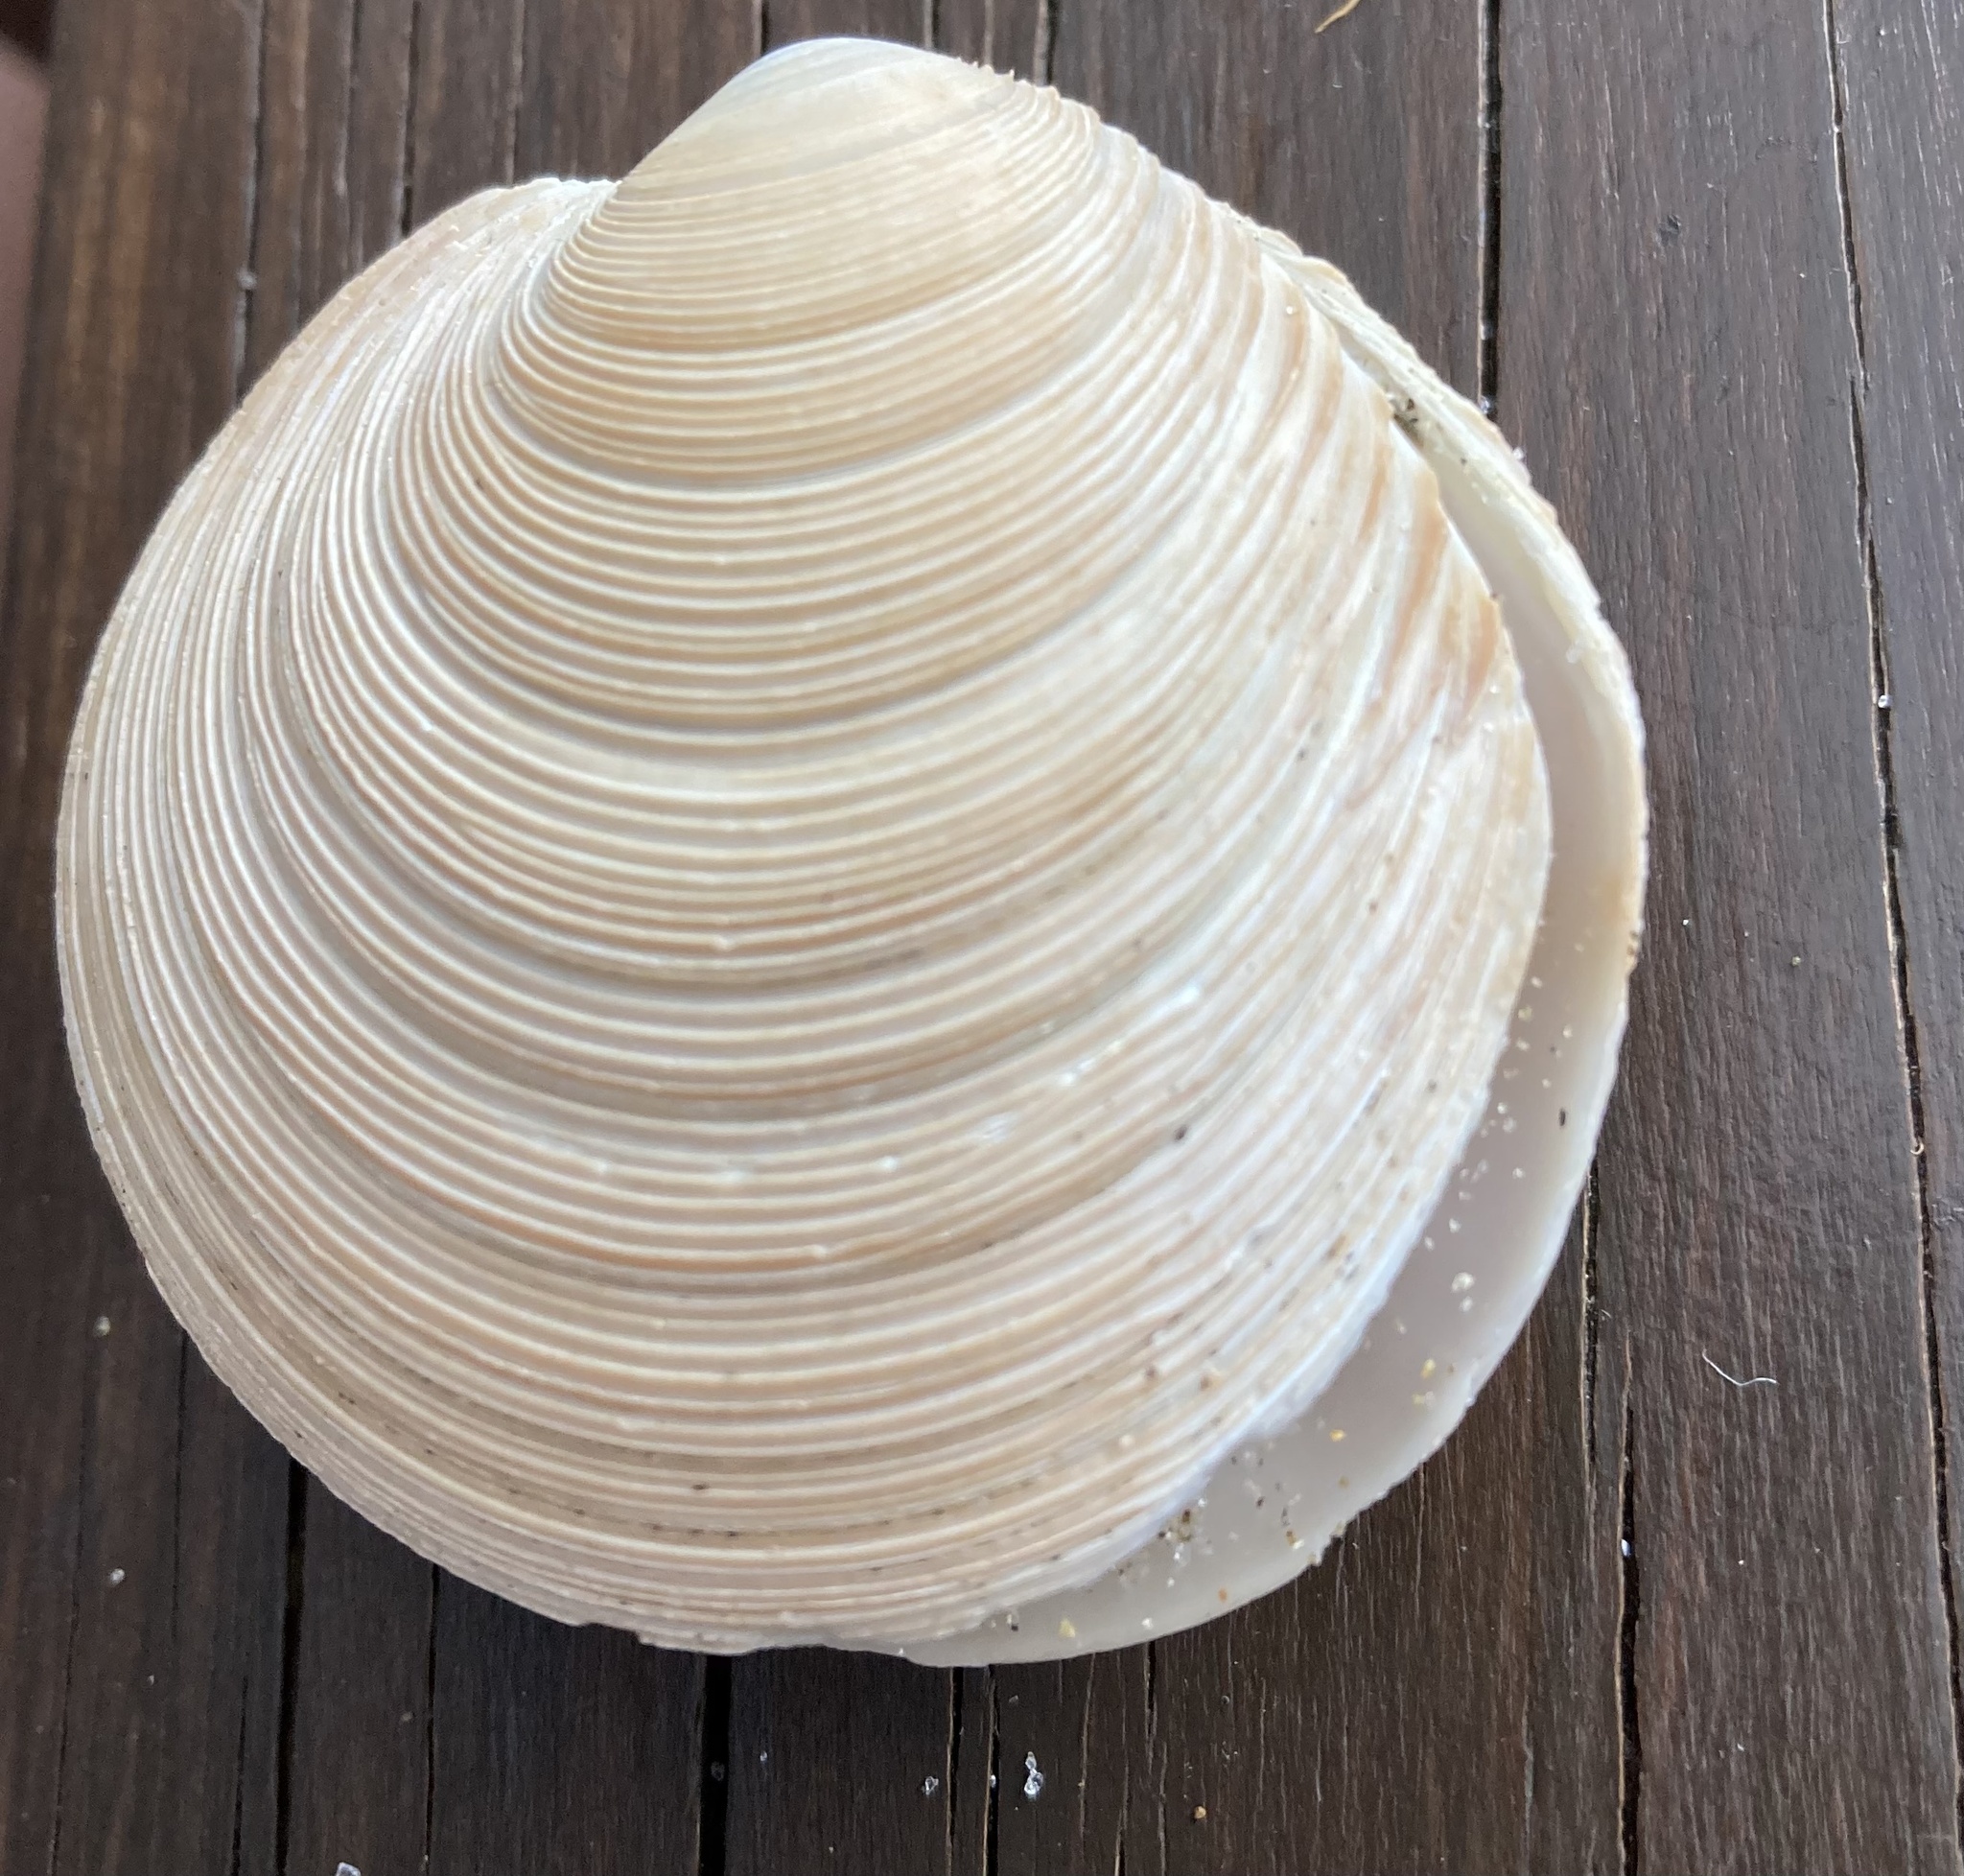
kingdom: Animalia
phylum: Mollusca
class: Bivalvia
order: Venerida
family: Veneridae
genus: Dosinia
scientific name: Dosinia anus
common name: Old-woman dosinia
